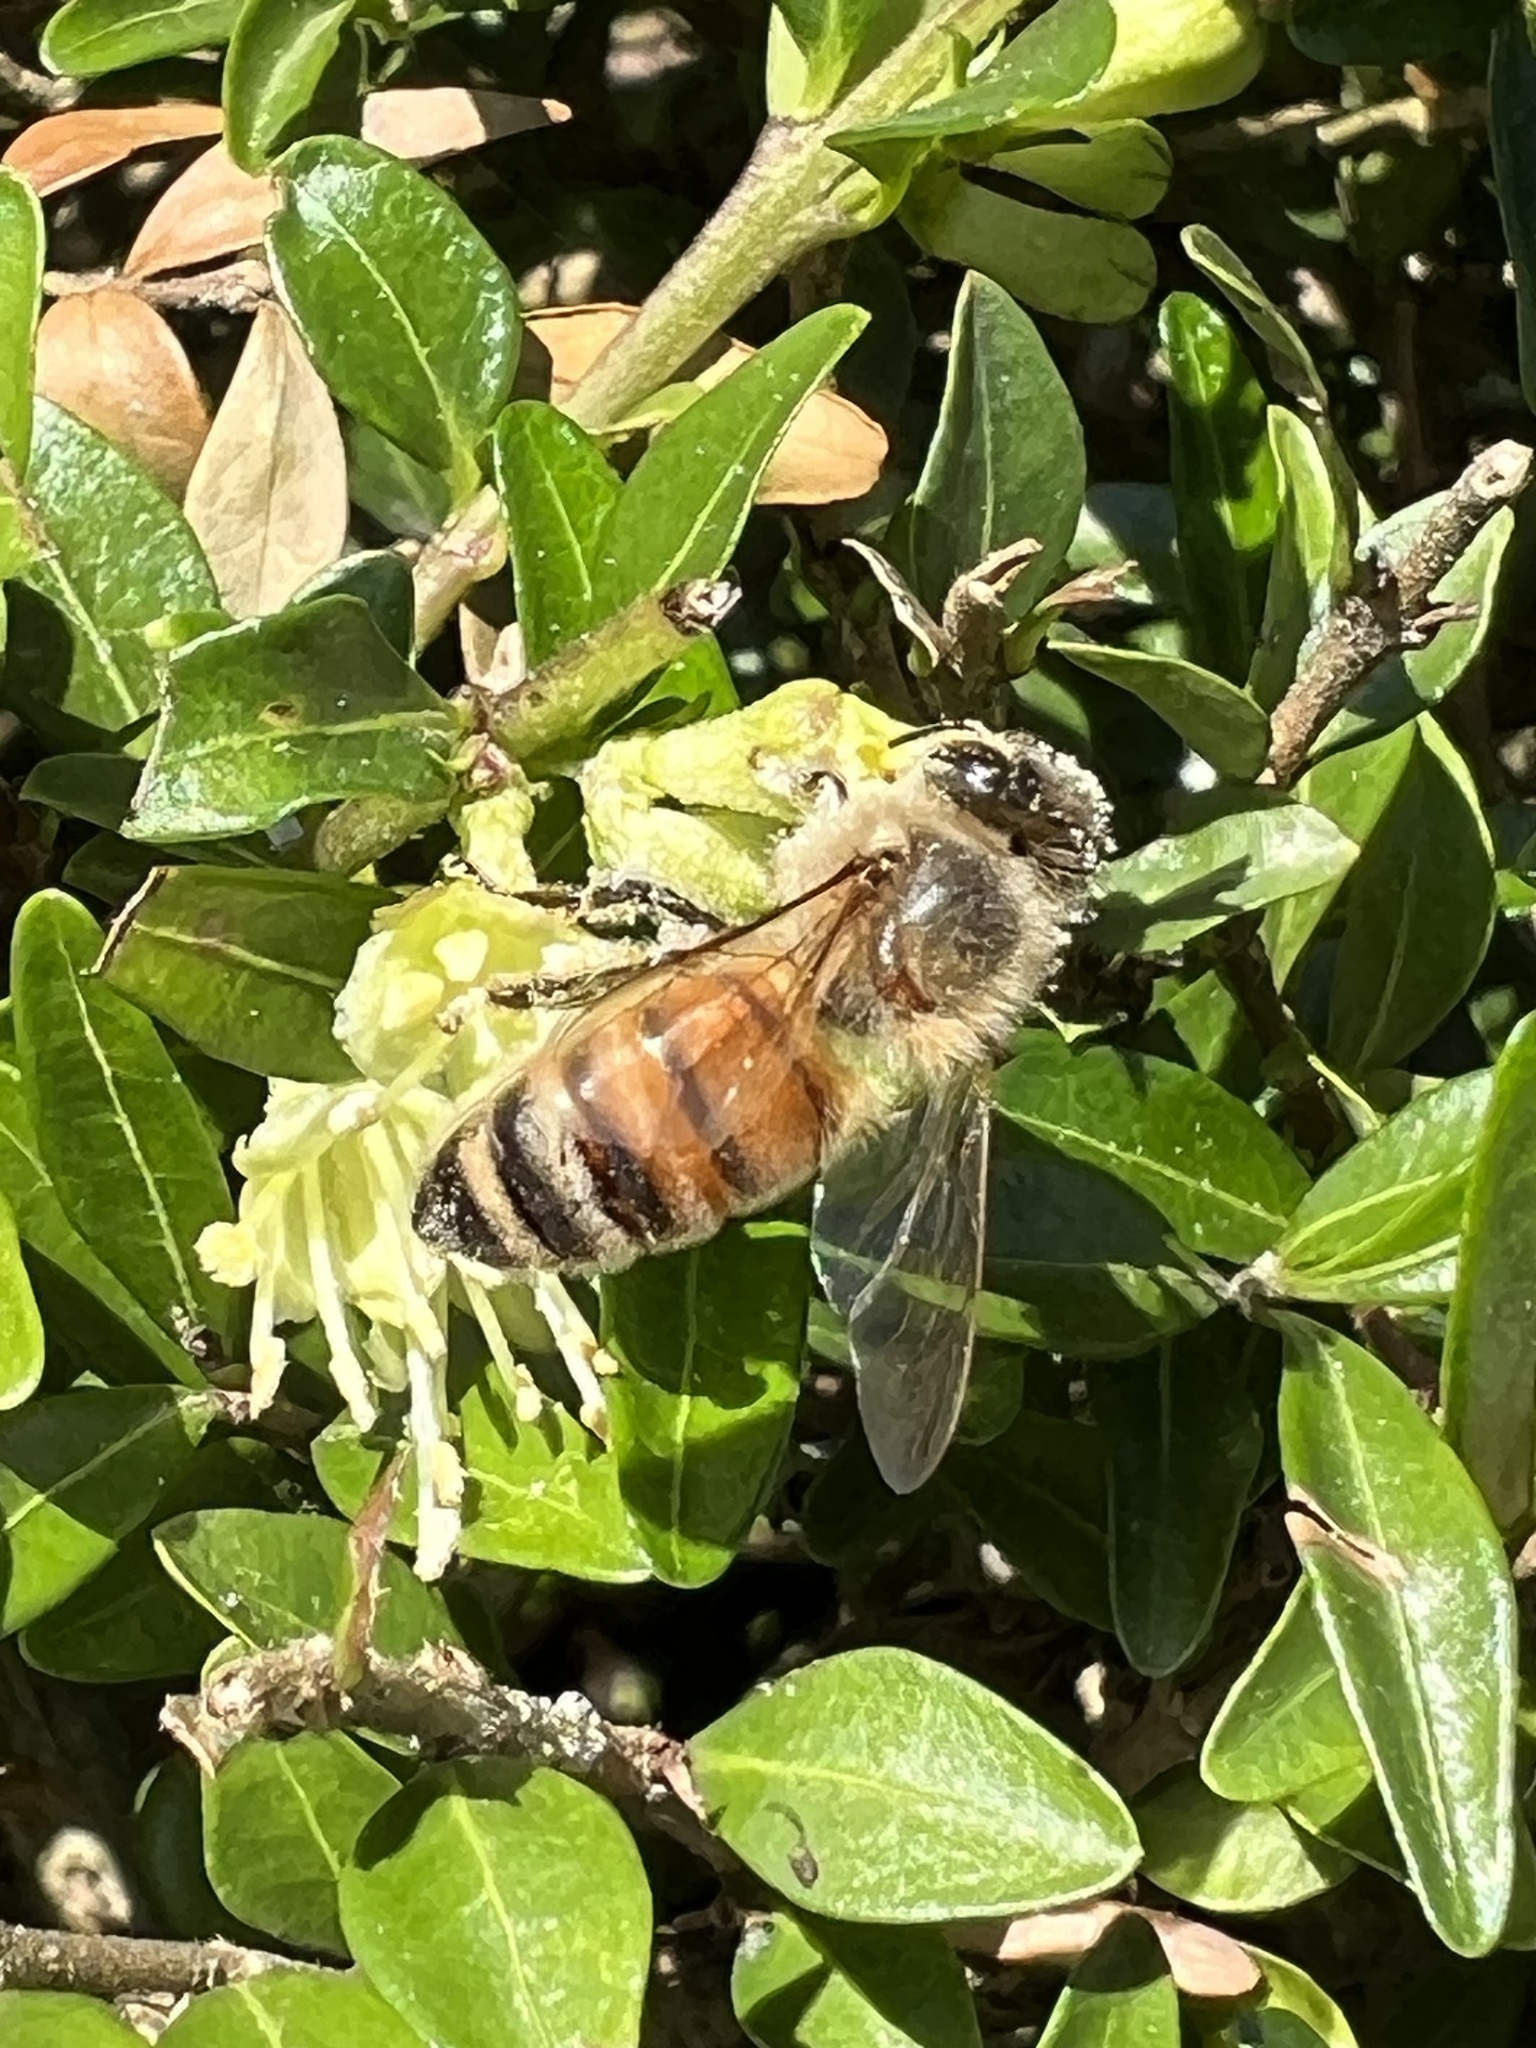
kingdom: Animalia
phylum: Arthropoda
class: Insecta
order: Hymenoptera
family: Apidae
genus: Apis
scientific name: Apis mellifera
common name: Honey bee
